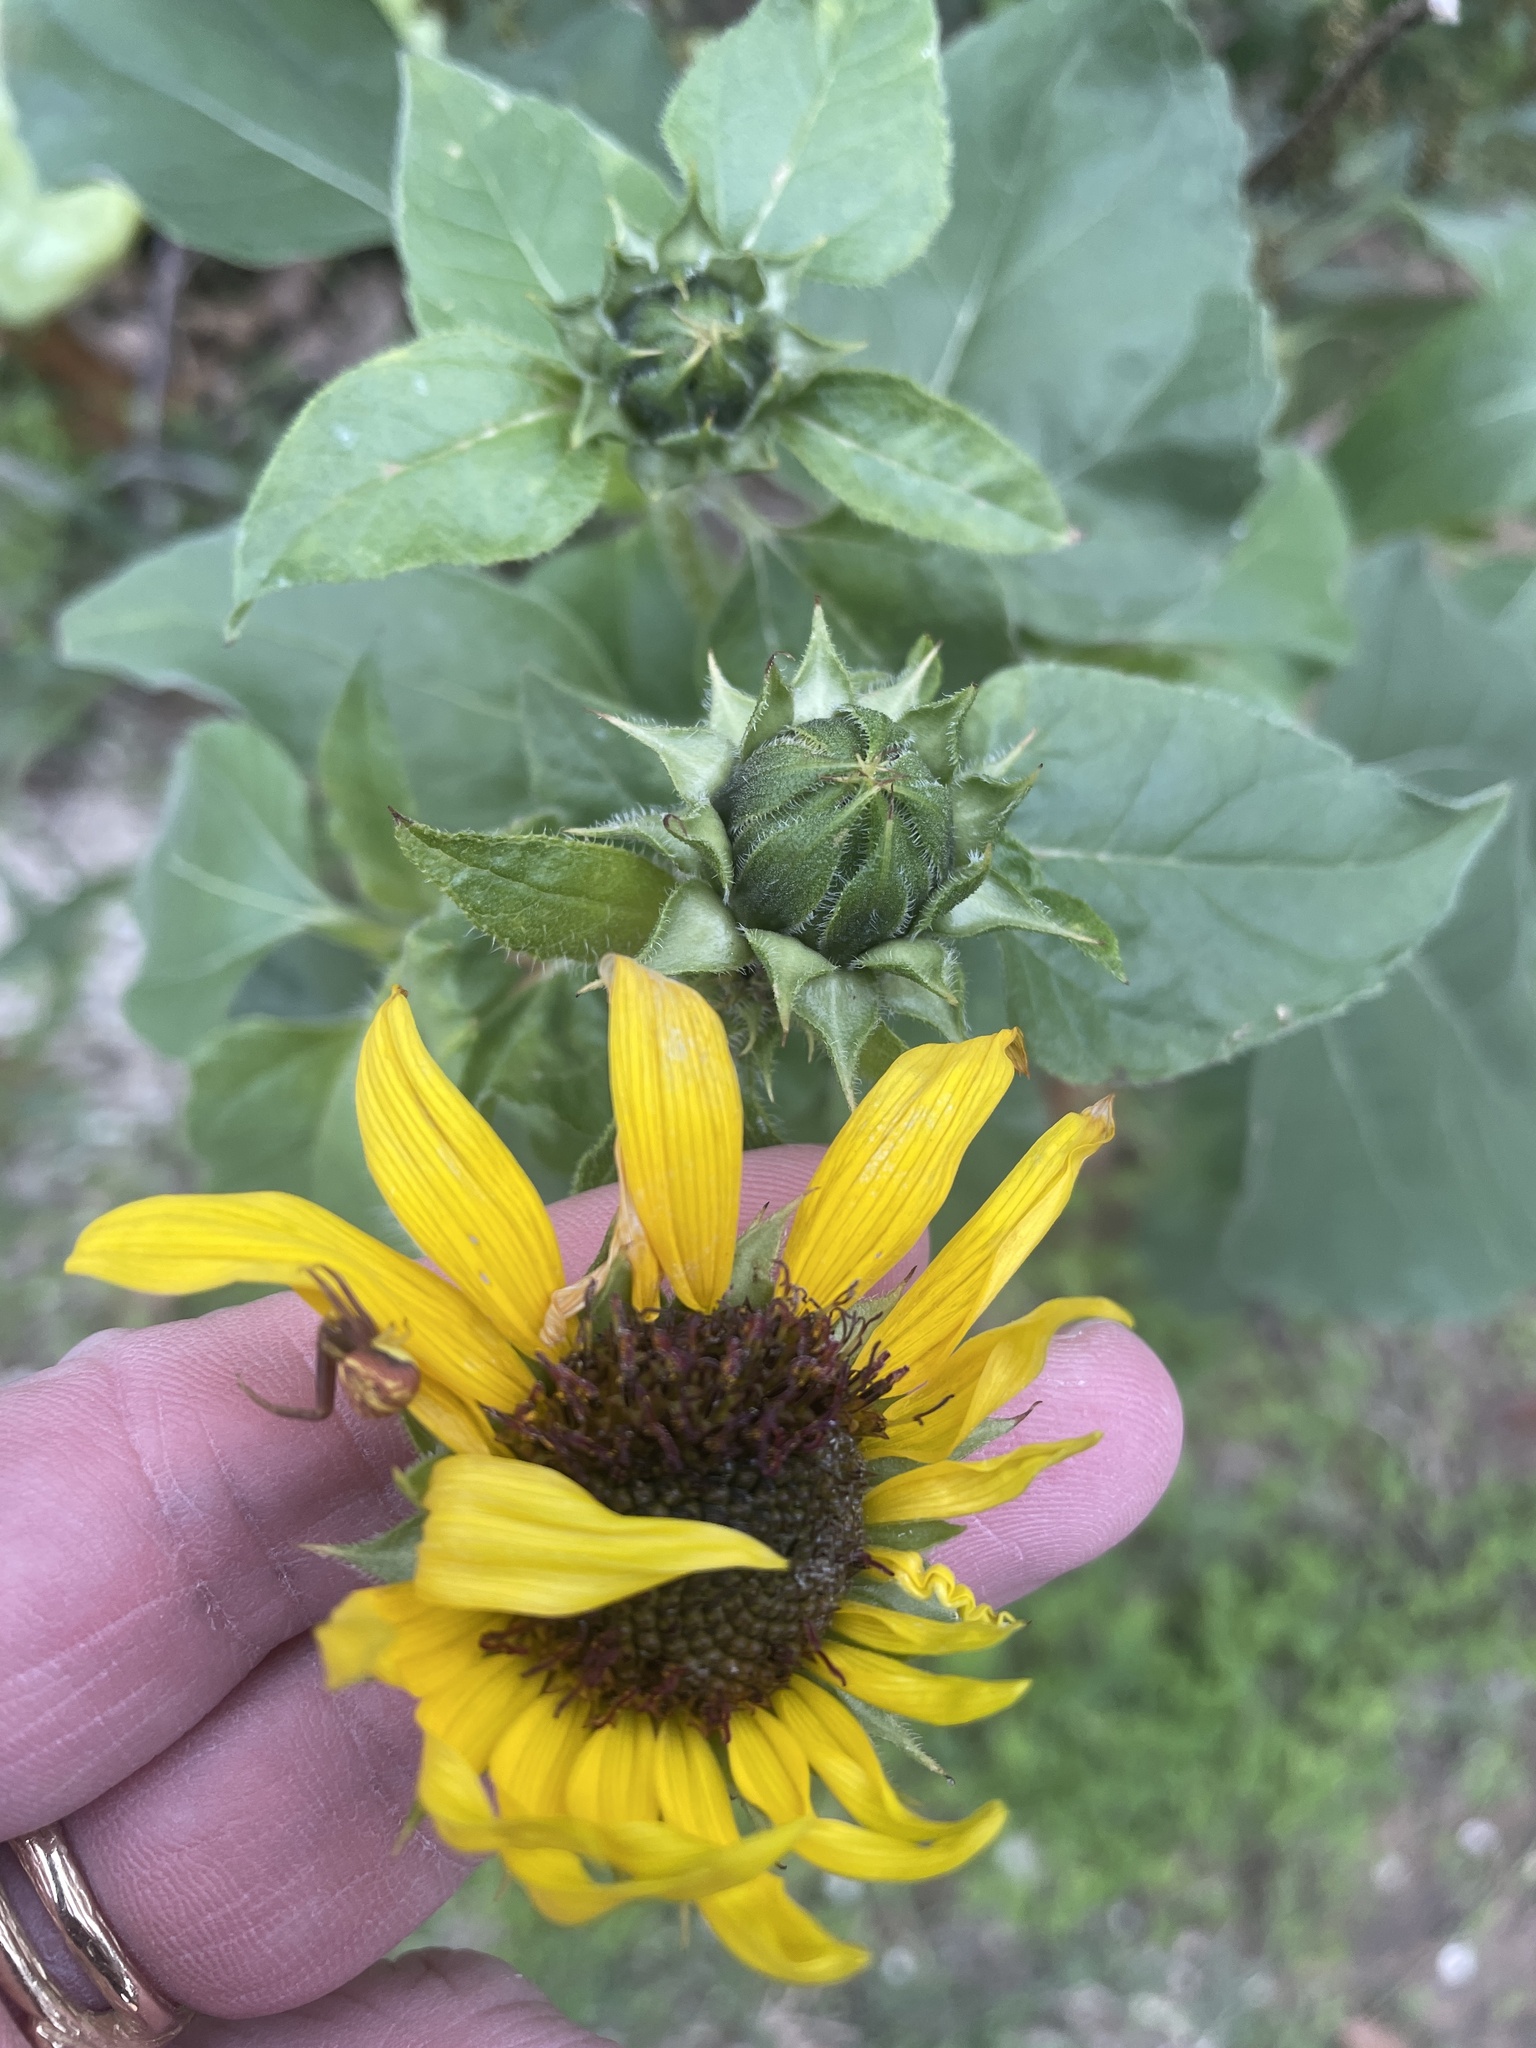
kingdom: Plantae
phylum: Tracheophyta
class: Magnoliopsida
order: Asterales
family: Asteraceae
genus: Helianthus
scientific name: Helianthus annuus
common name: Sunflower
